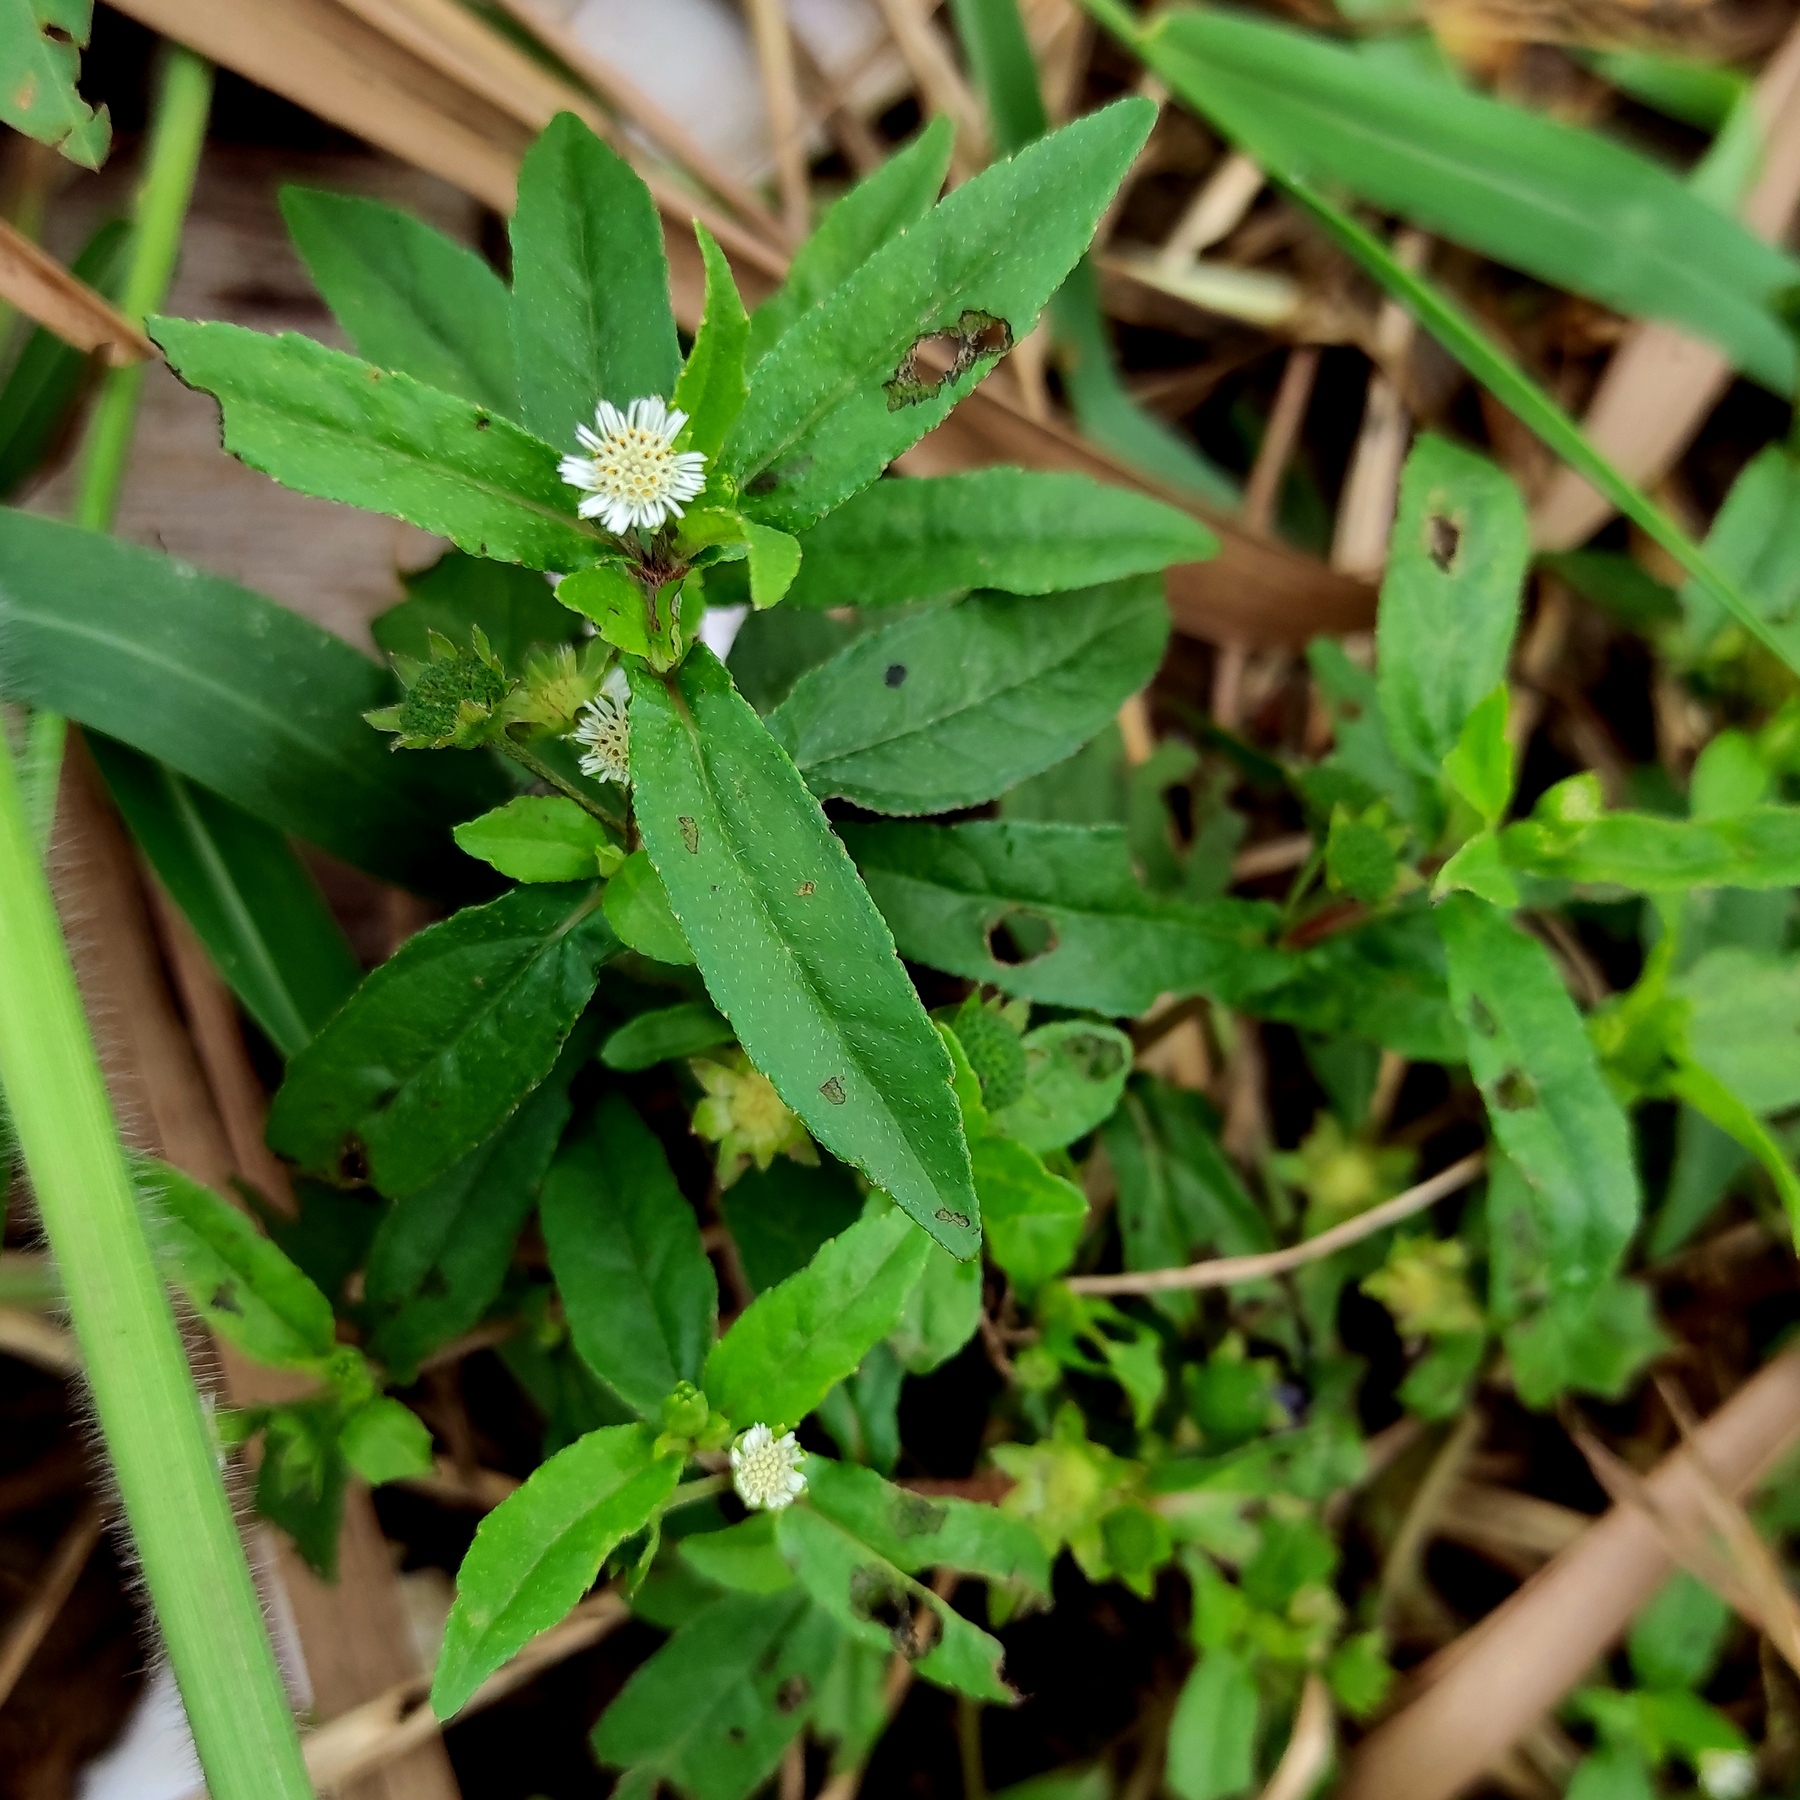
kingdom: Plantae
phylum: Tracheophyta
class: Magnoliopsida
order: Asterales
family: Asteraceae
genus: Eclipta
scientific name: Eclipta prostrata
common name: False daisy
